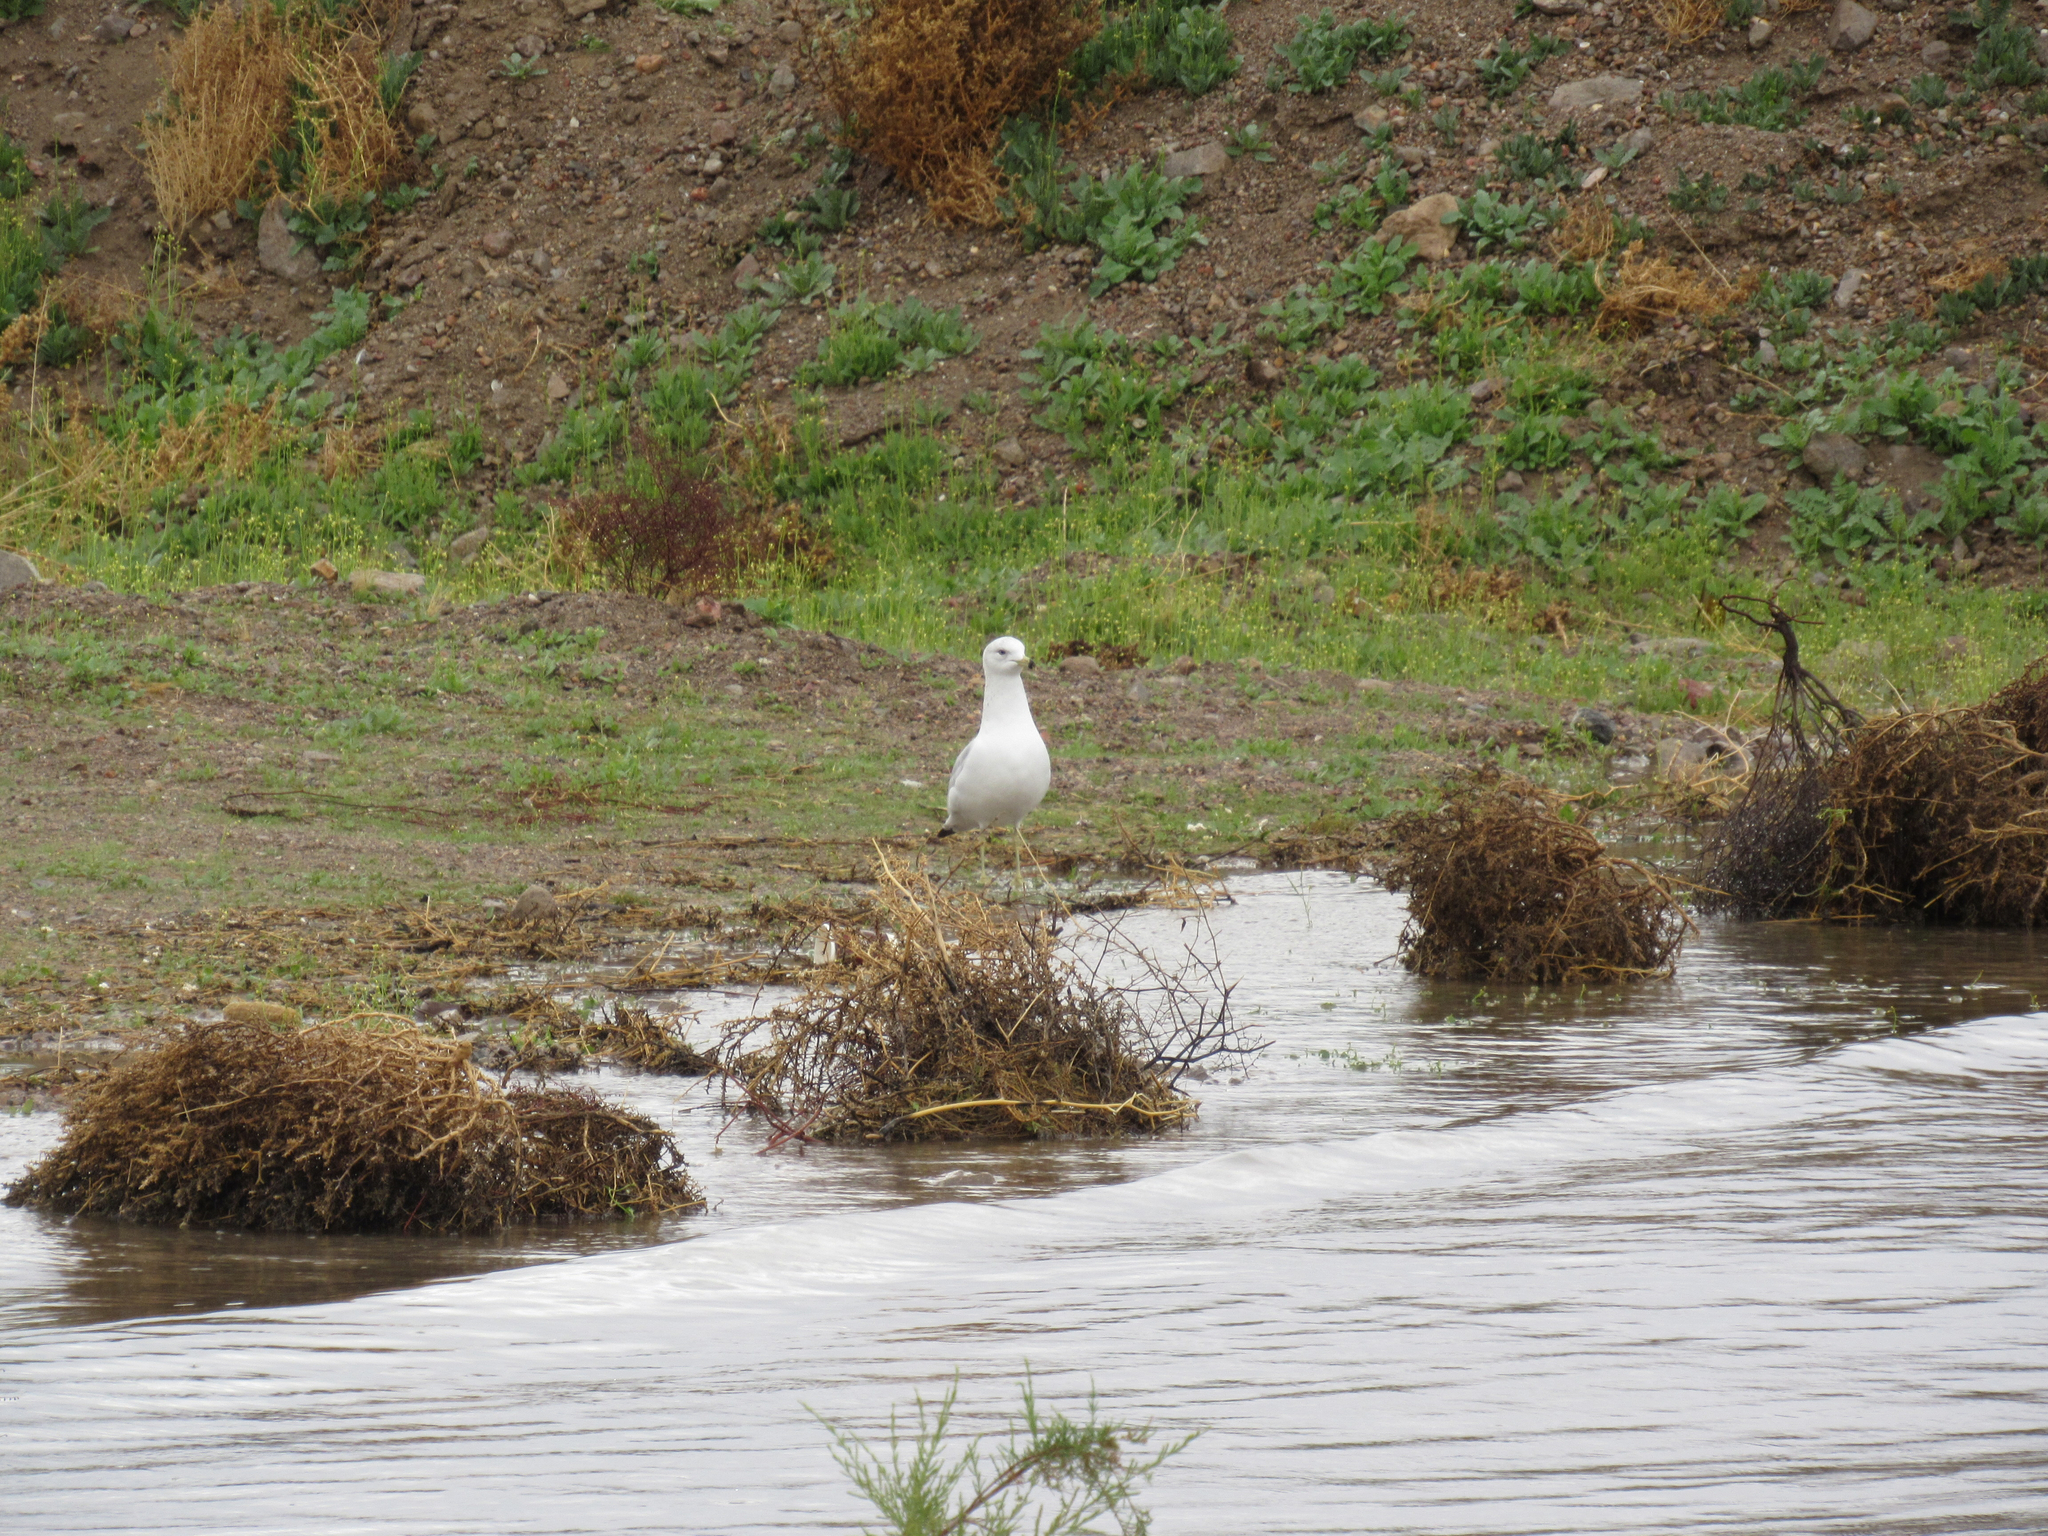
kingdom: Animalia
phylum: Chordata
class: Aves
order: Charadriiformes
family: Laridae
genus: Larus
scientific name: Larus delawarensis
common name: Ring-billed gull
